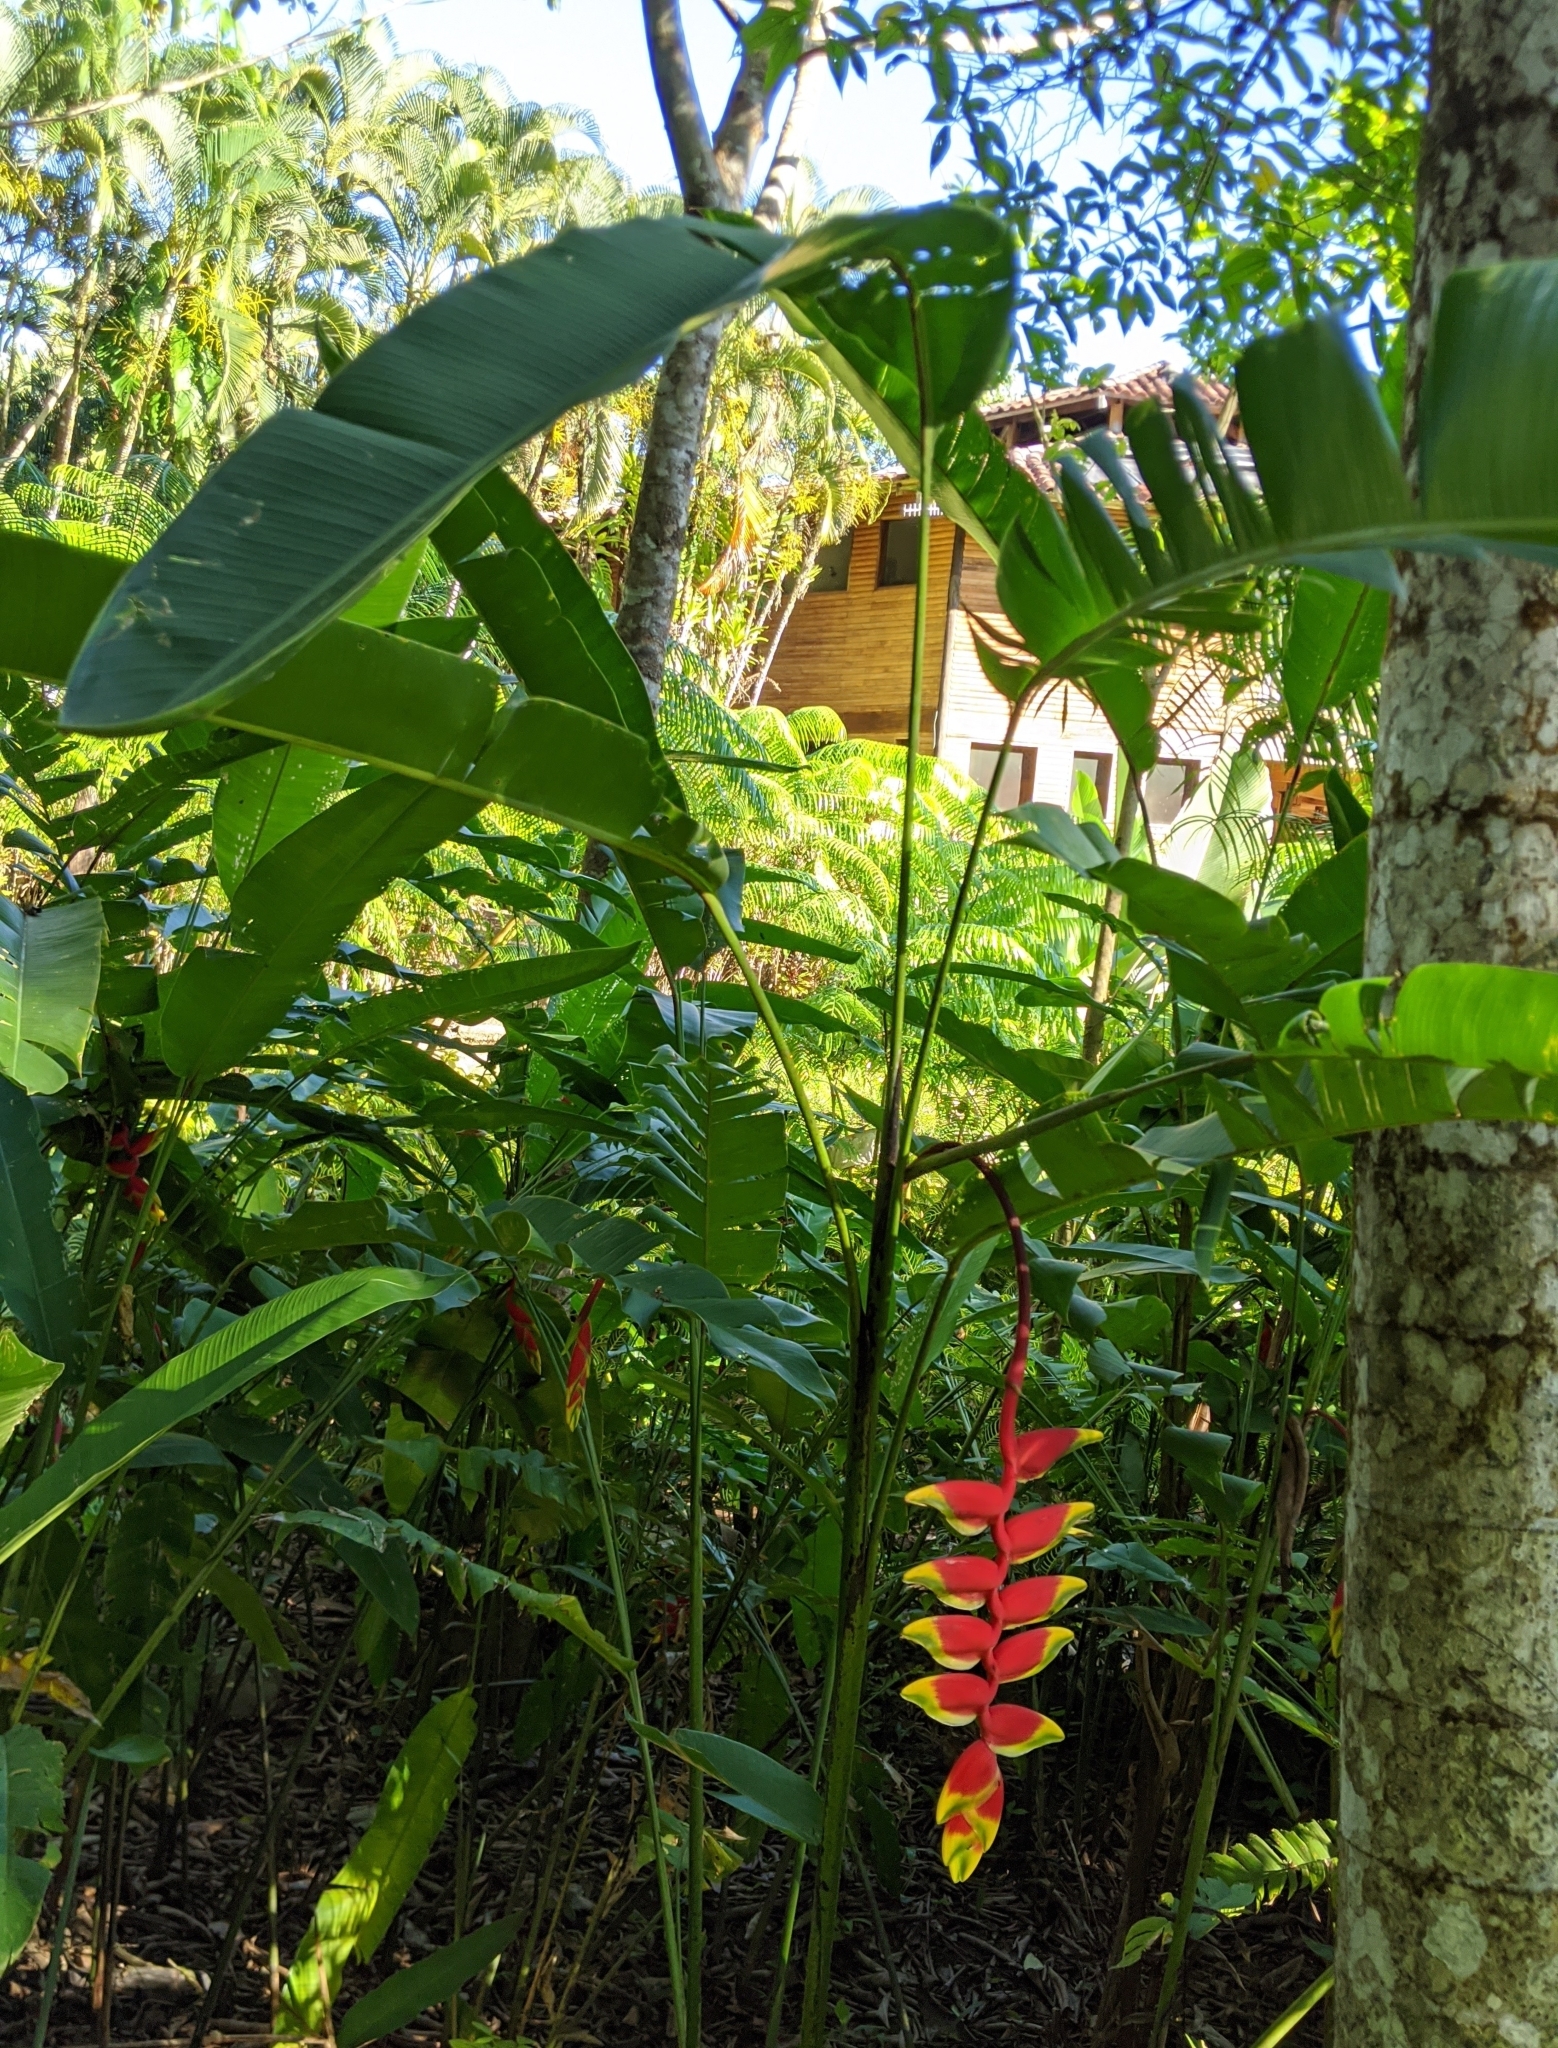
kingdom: Plantae
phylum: Tracheophyta
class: Liliopsida
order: Zingiberales
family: Heliconiaceae
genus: Heliconia
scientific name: Heliconia rostrata
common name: False bird of paradise
